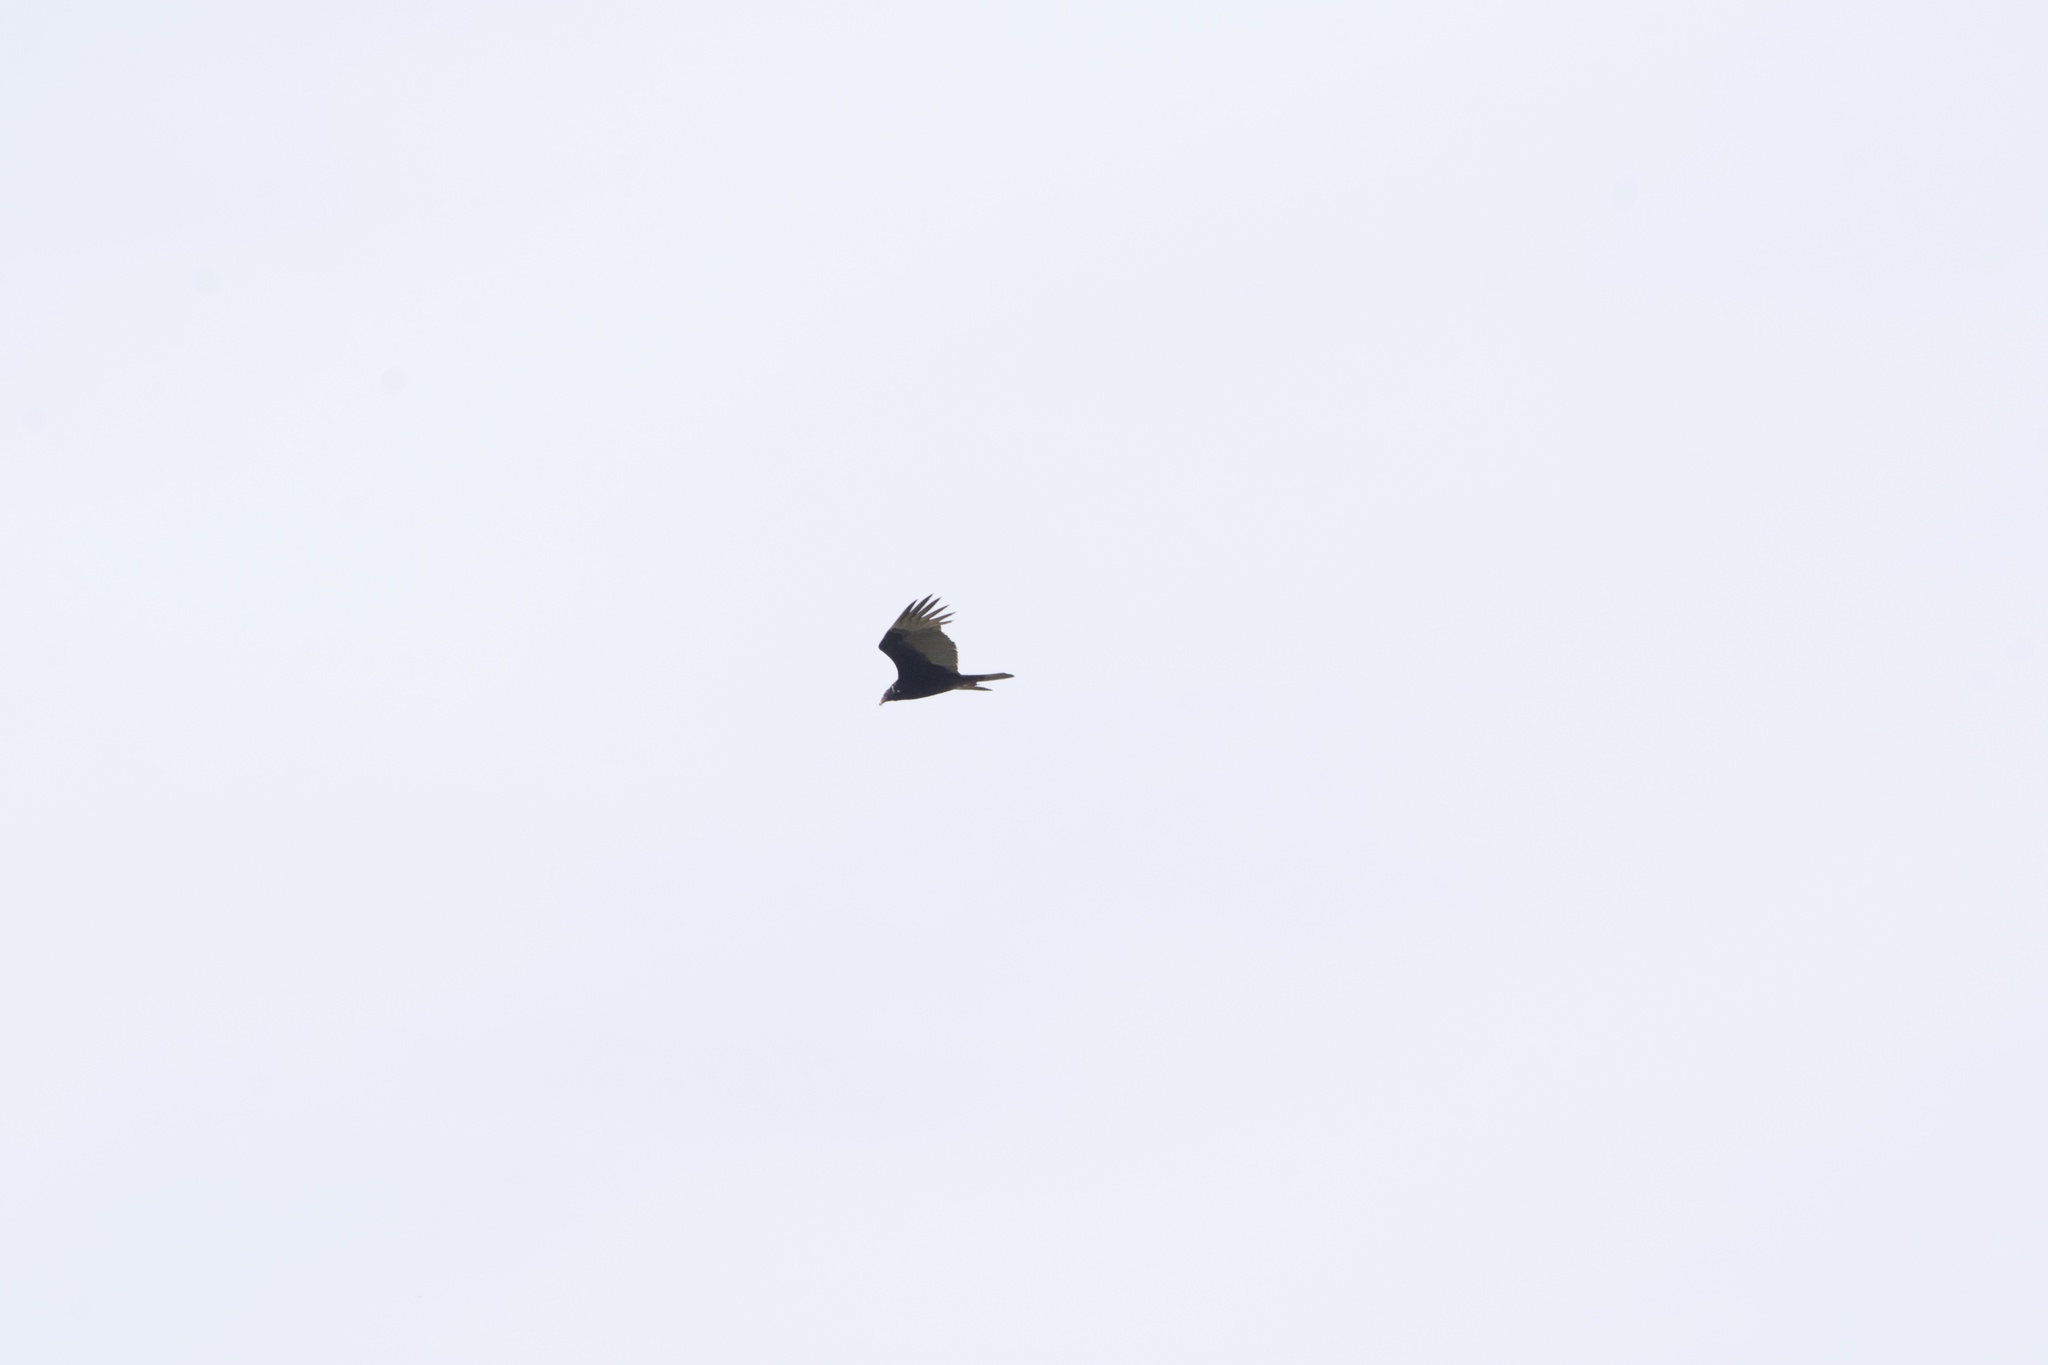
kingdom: Animalia
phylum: Chordata
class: Aves
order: Accipitriformes
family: Cathartidae
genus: Cathartes
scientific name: Cathartes aura
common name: Turkey vulture
